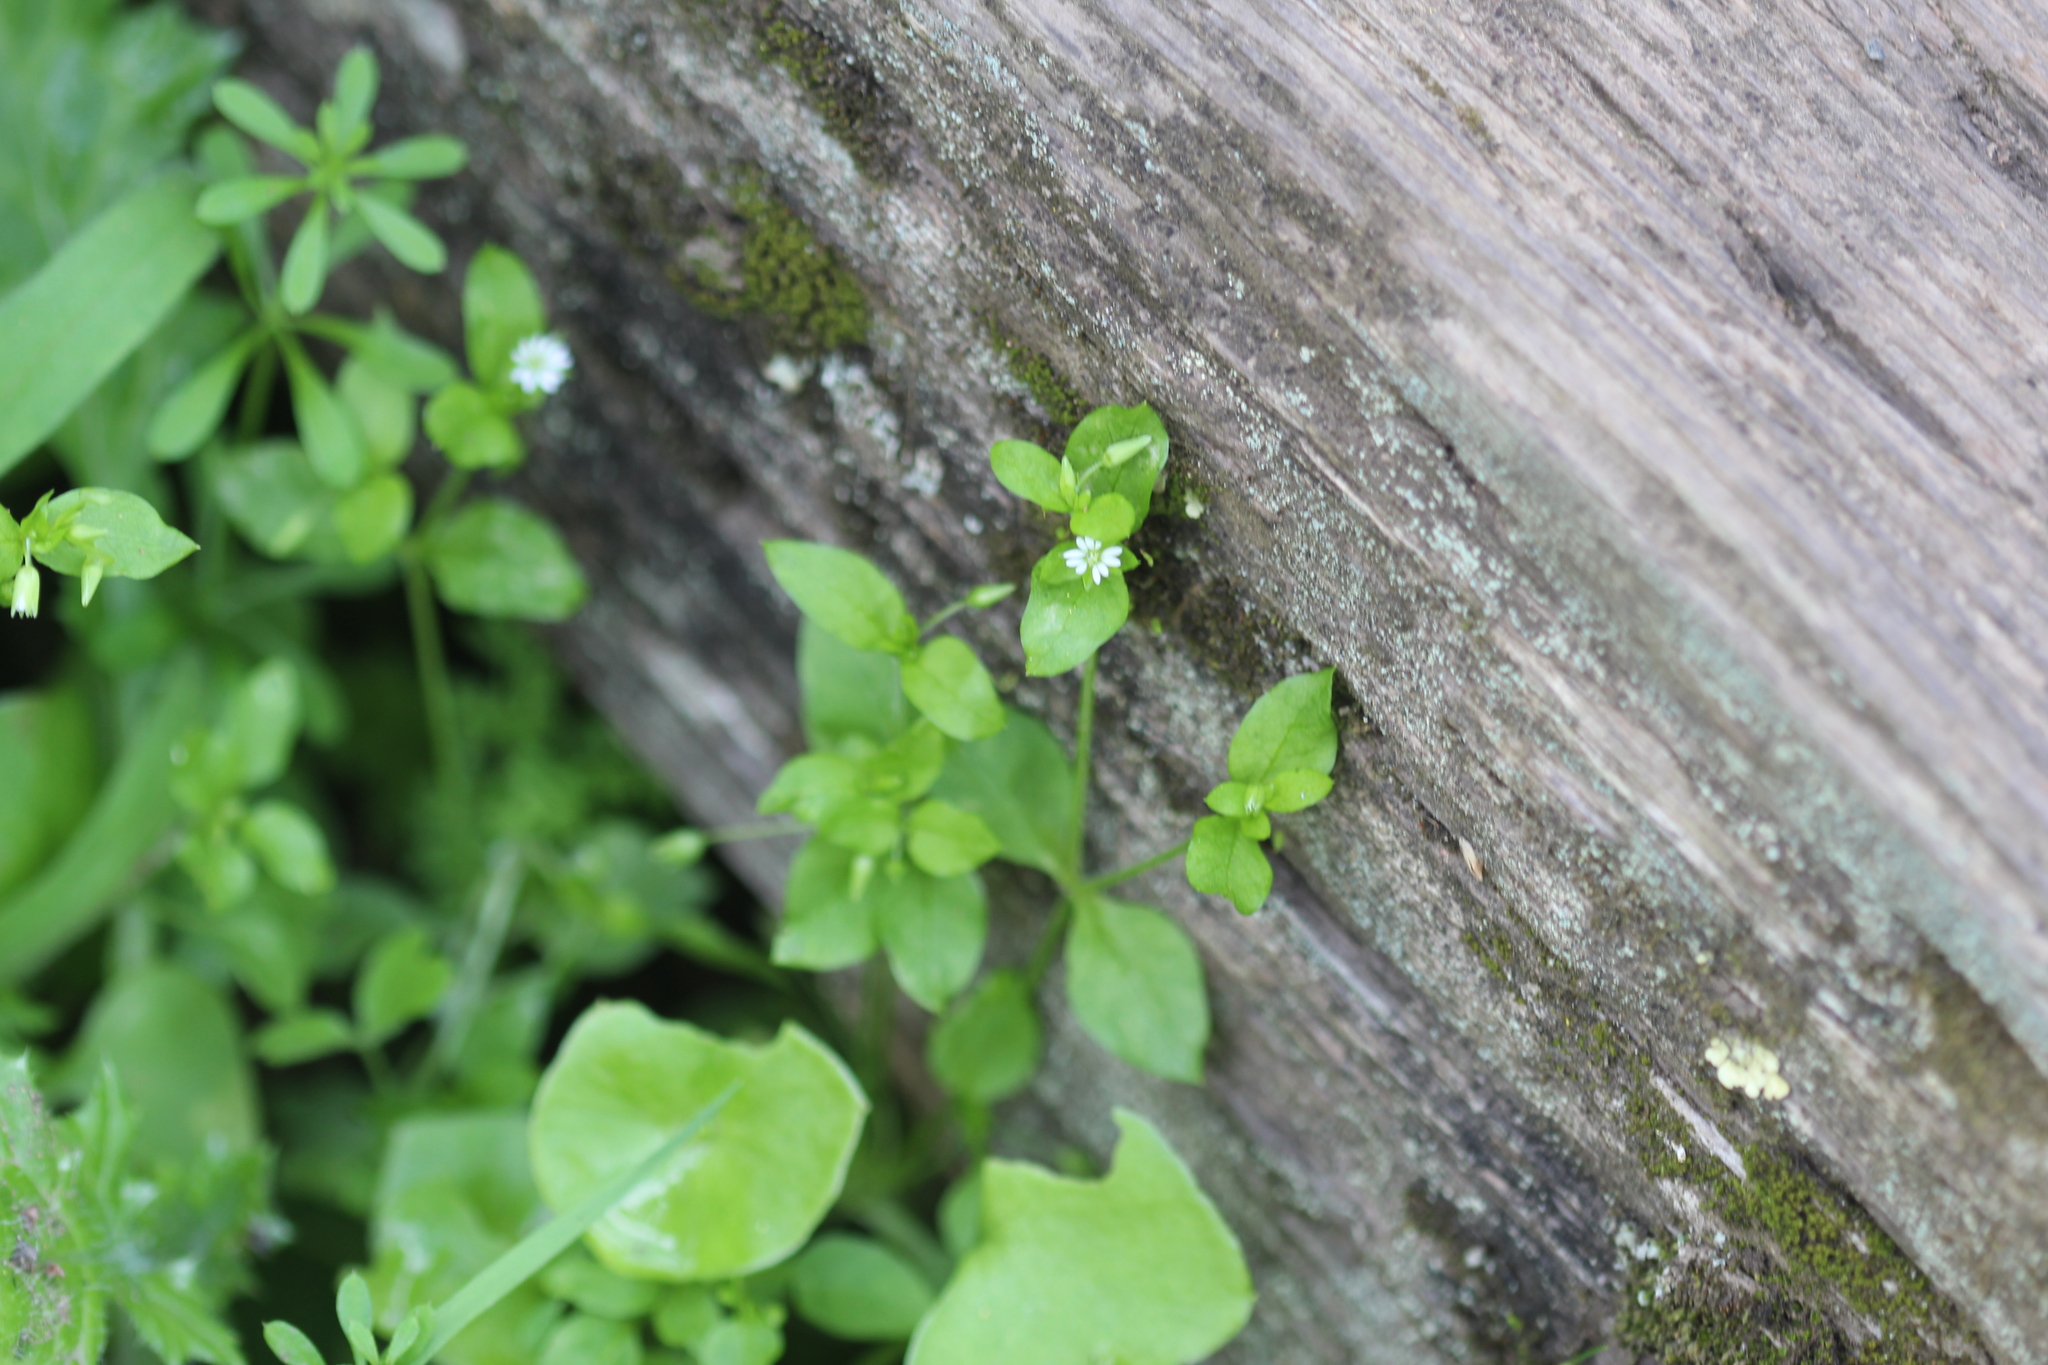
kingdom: Plantae
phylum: Tracheophyta
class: Magnoliopsida
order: Caryophyllales
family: Caryophyllaceae
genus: Stellaria
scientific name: Stellaria media
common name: Common chickweed
